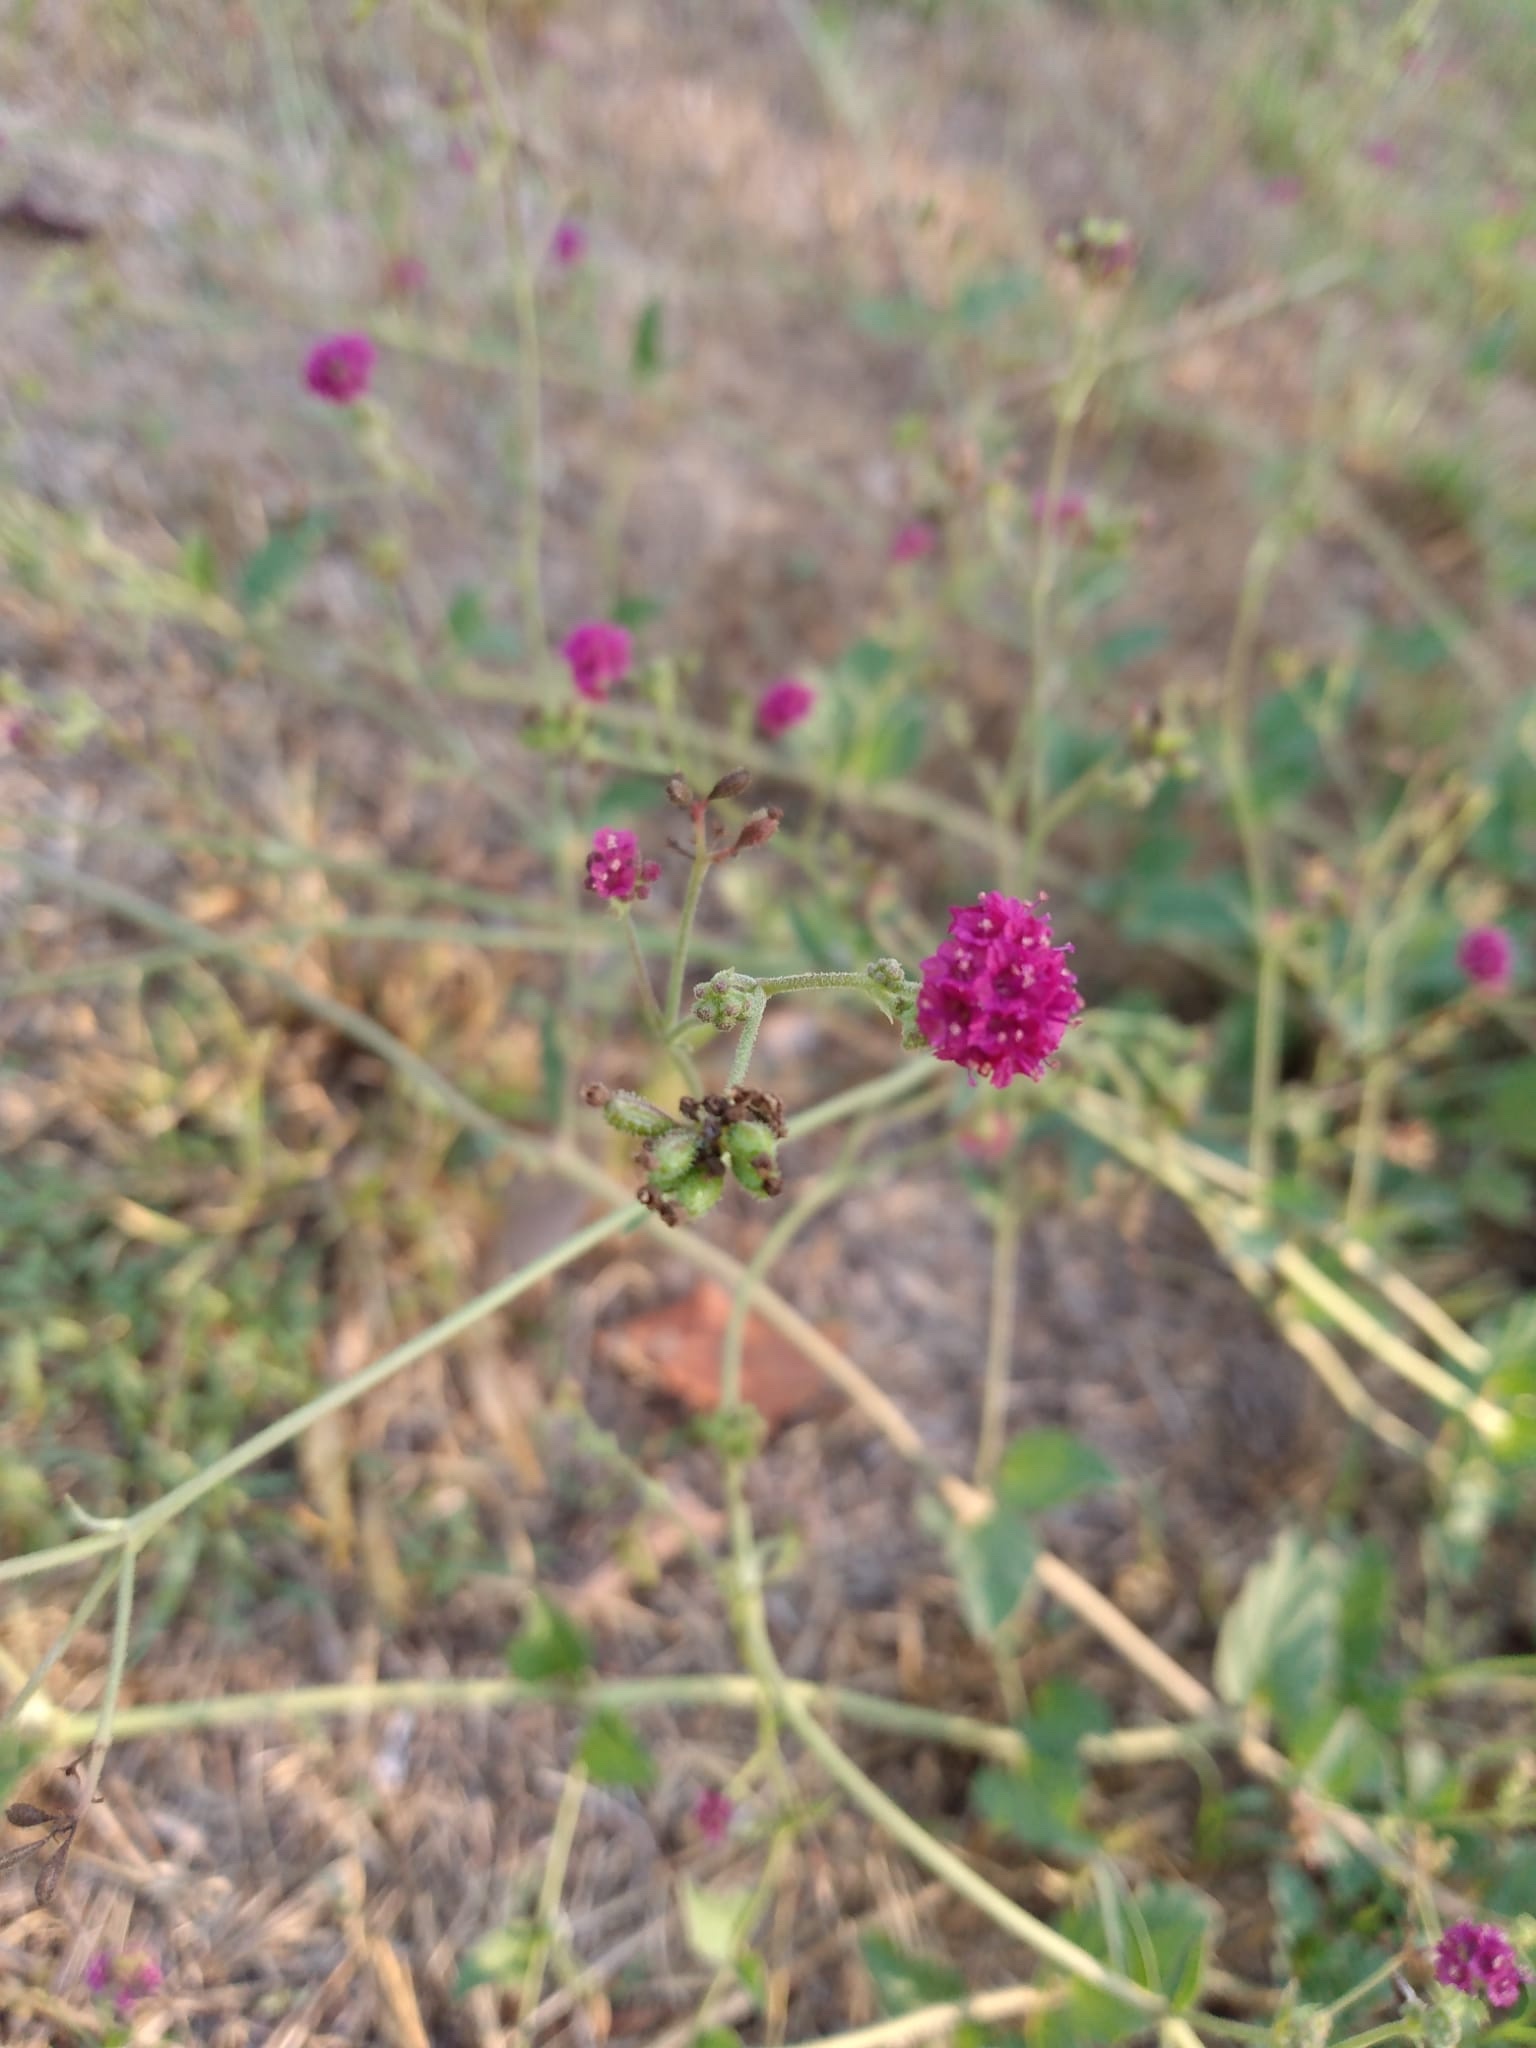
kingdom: Plantae
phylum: Tracheophyta
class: Magnoliopsida
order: Caryophyllales
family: Nyctaginaceae
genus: Boerhavia
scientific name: Boerhavia coccinea
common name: Scarlet spiderling
